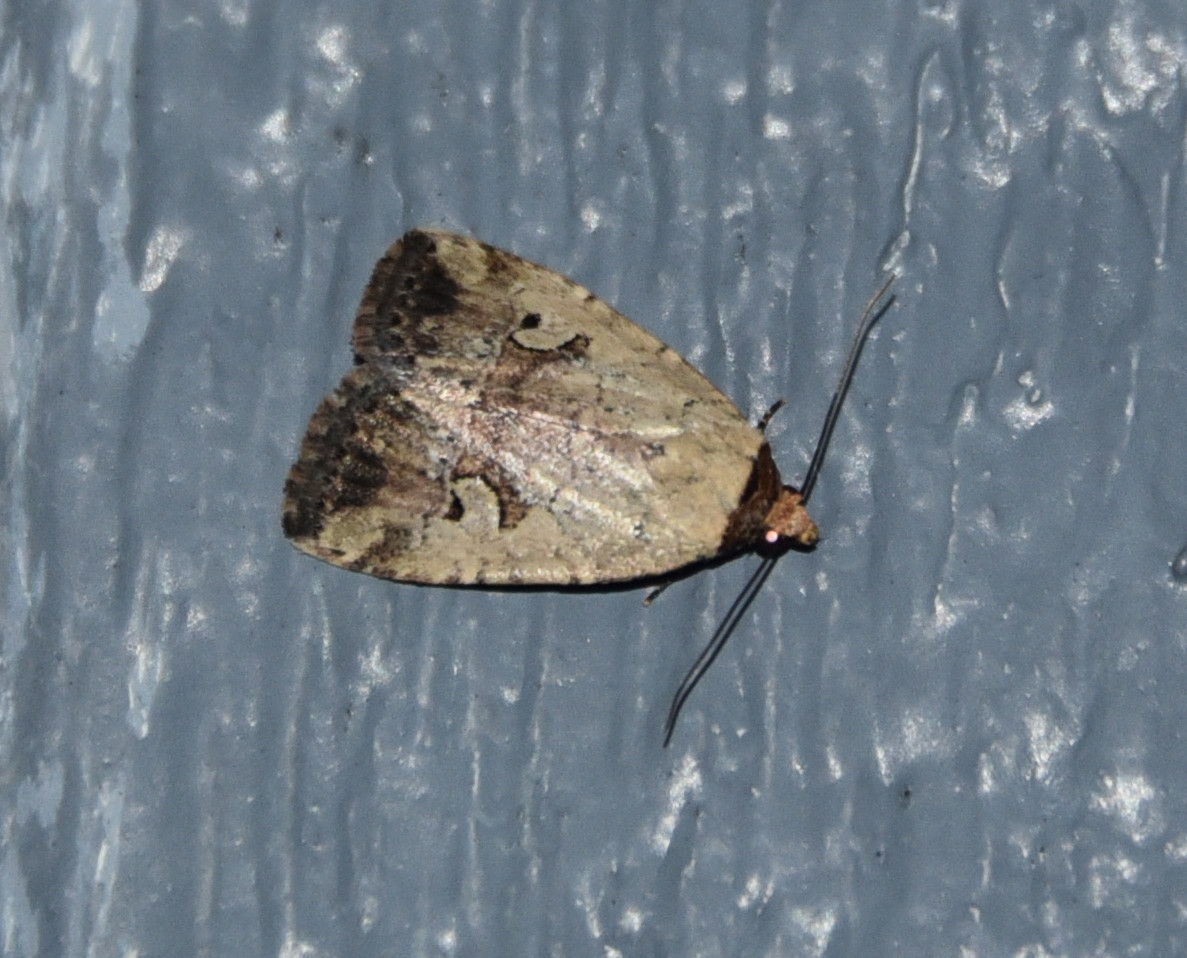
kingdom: Animalia
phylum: Arthropoda
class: Insecta
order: Lepidoptera
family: Noctuidae
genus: Elaphria
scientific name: Elaphria festivoides
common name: Festive midget
